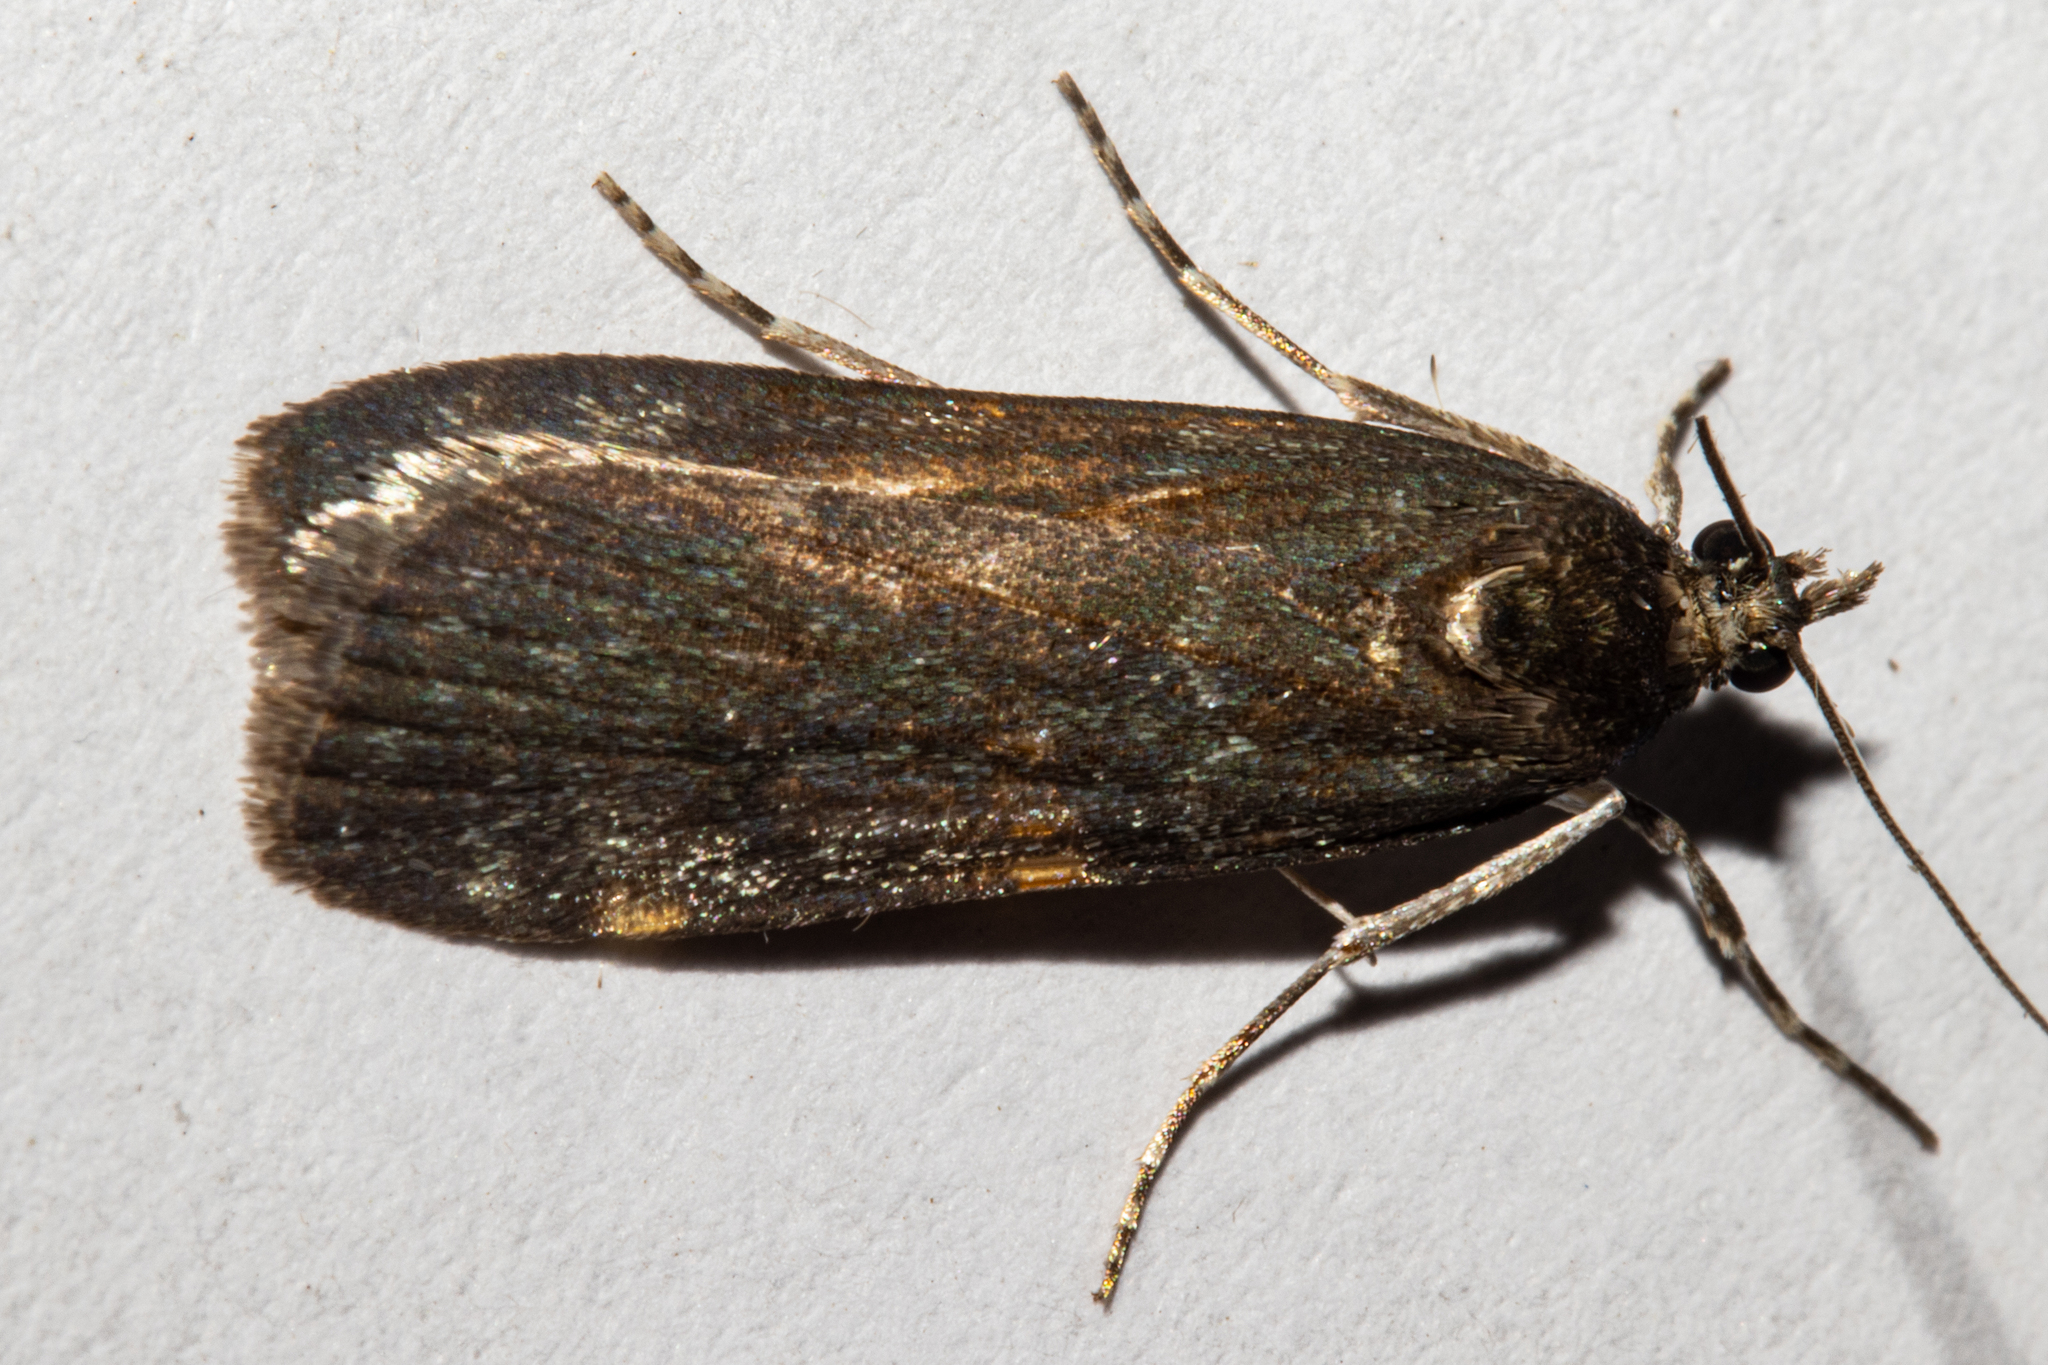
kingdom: Animalia
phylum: Arthropoda
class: Insecta
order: Lepidoptera
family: Crambidae
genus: Eudonia
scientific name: Eudonia cataxesta
